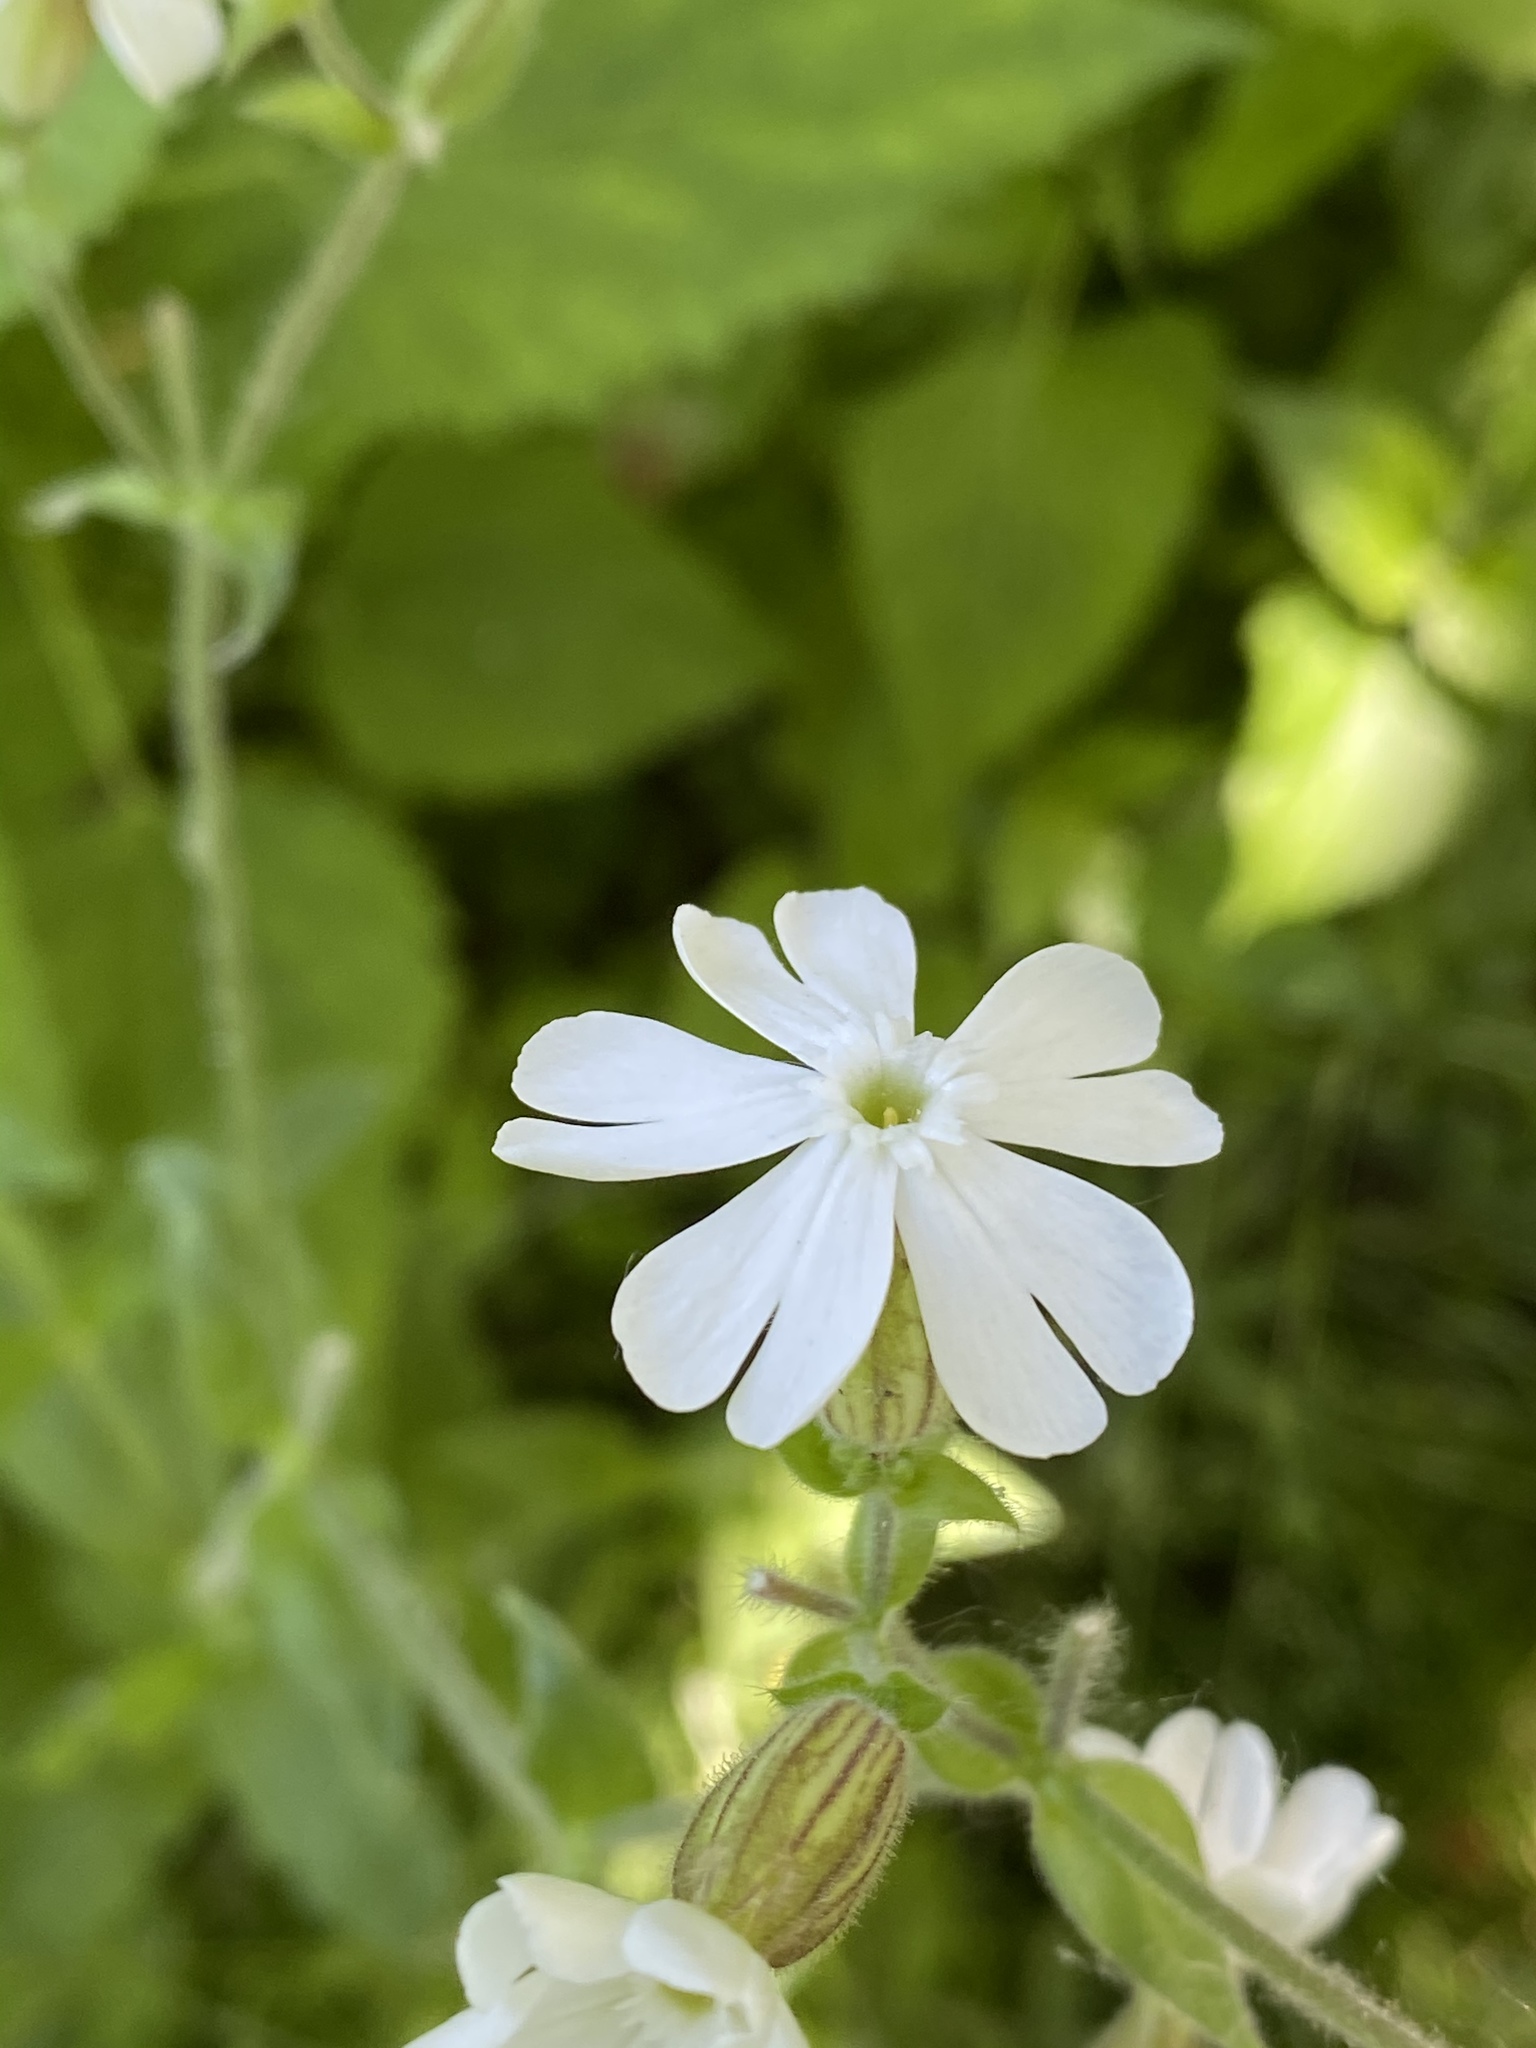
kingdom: Plantae
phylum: Tracheophyta
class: Magnoliopsida
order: Caryophyllales
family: Caryophyllaceae
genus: Silene
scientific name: Silene latifolia
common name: White campion
